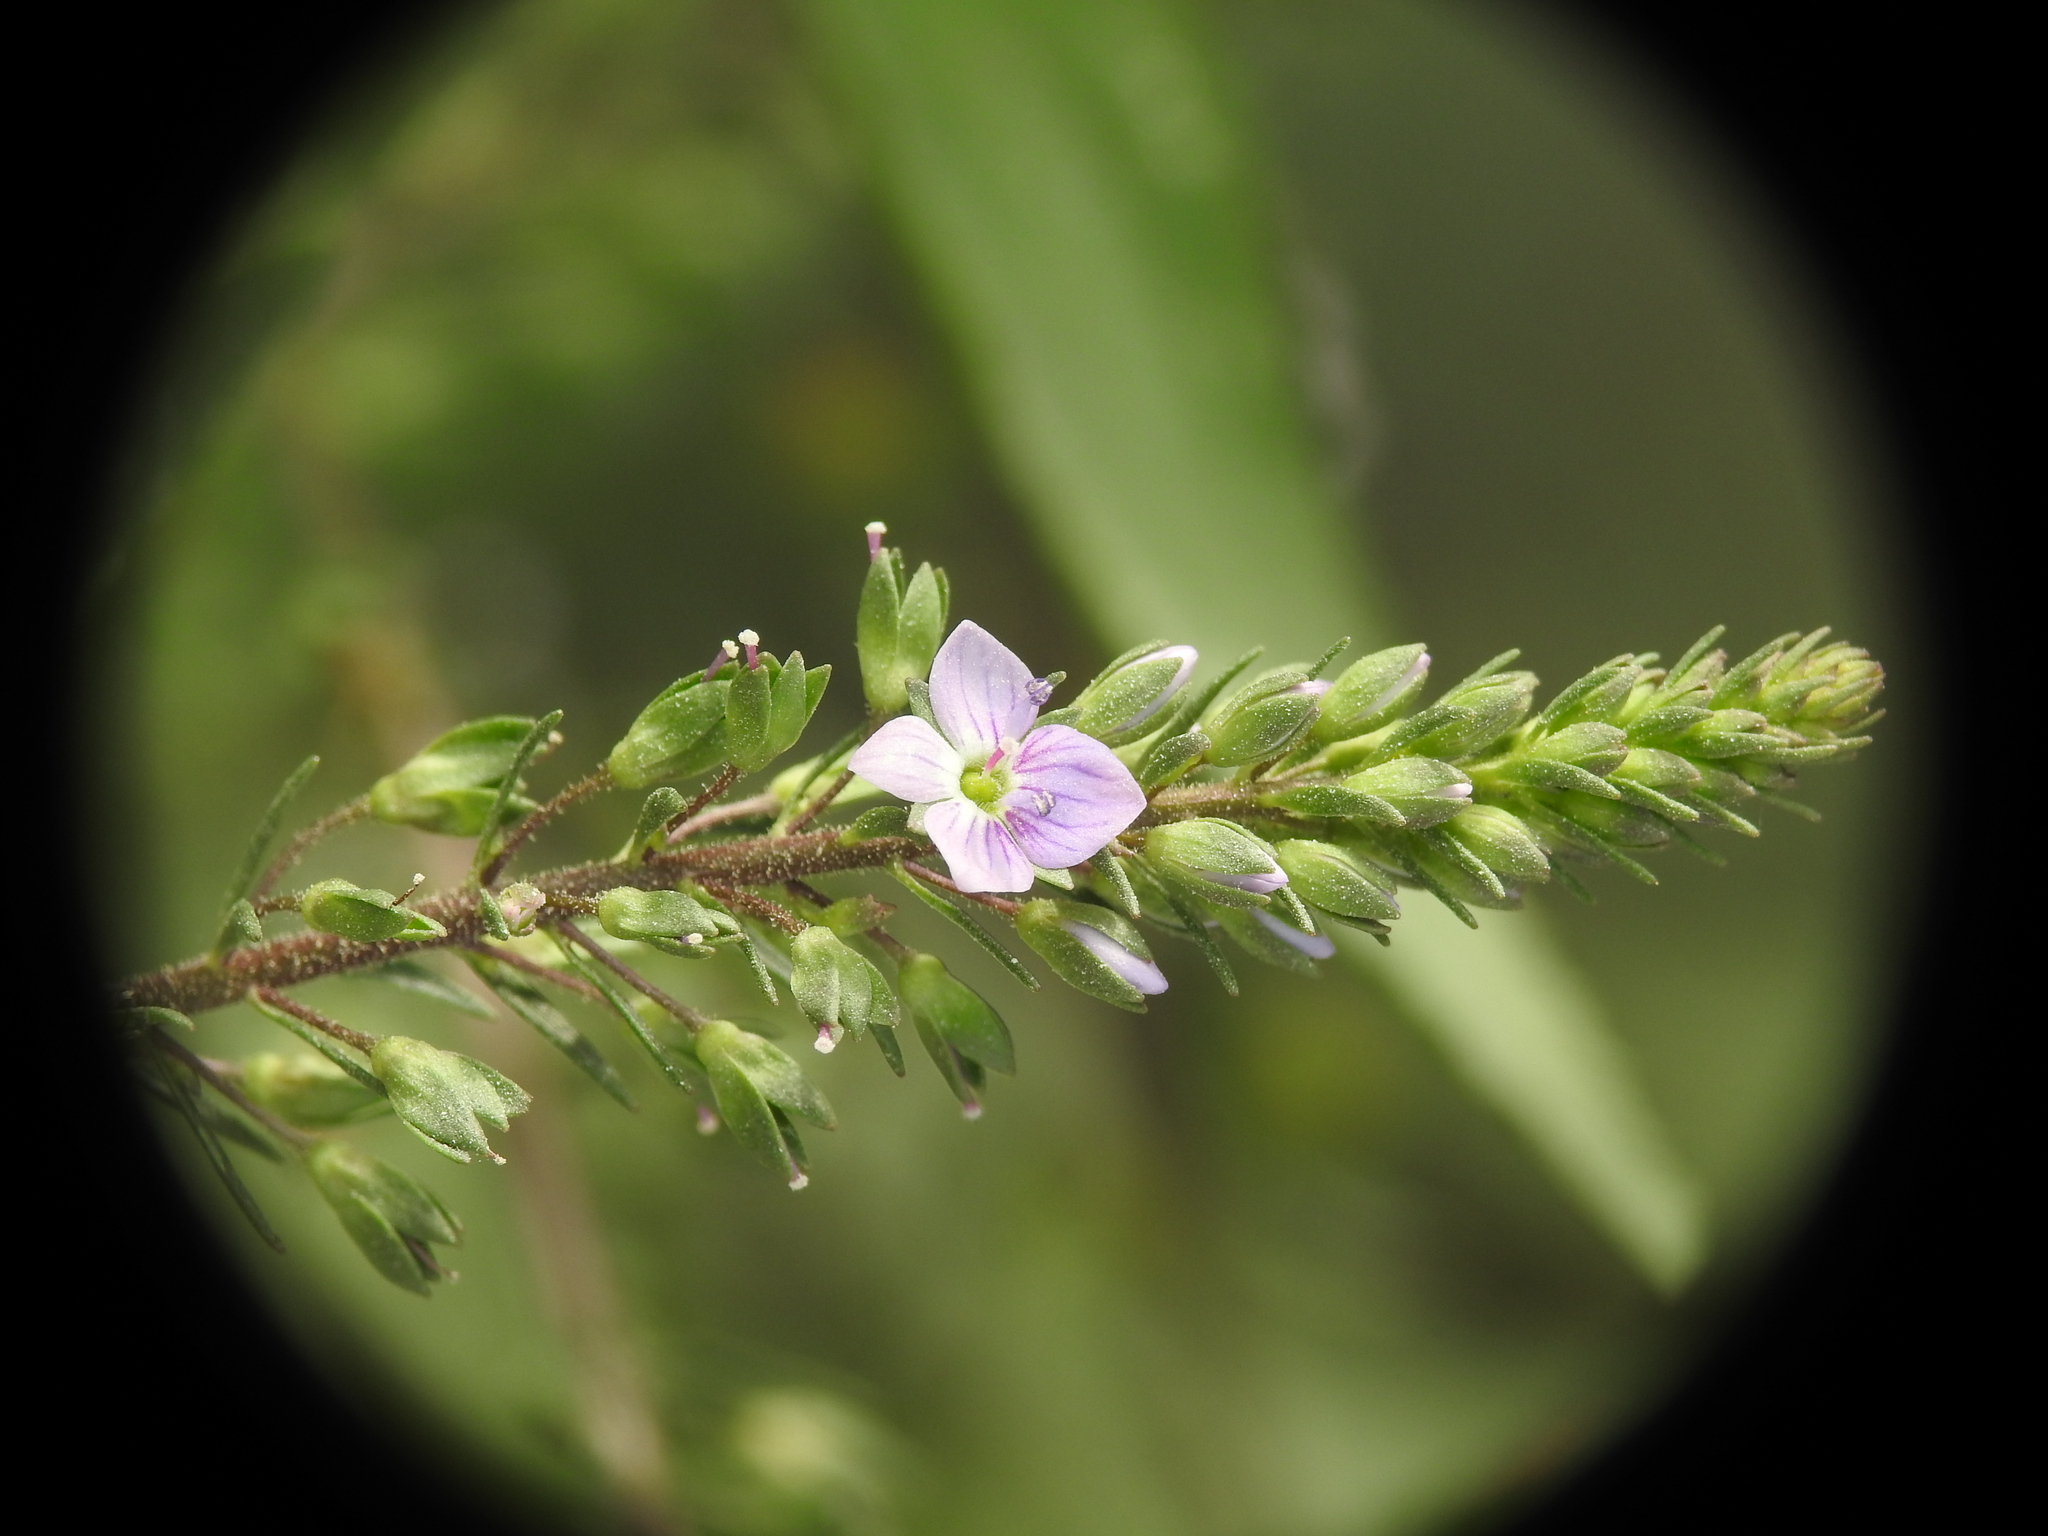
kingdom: Plantae
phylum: Tracheophyta
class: Magnoliopsida
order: Lamiales
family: Plantaginaceae
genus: Veronica
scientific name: Veronica anagallis-aquatica
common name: Water speedwell
